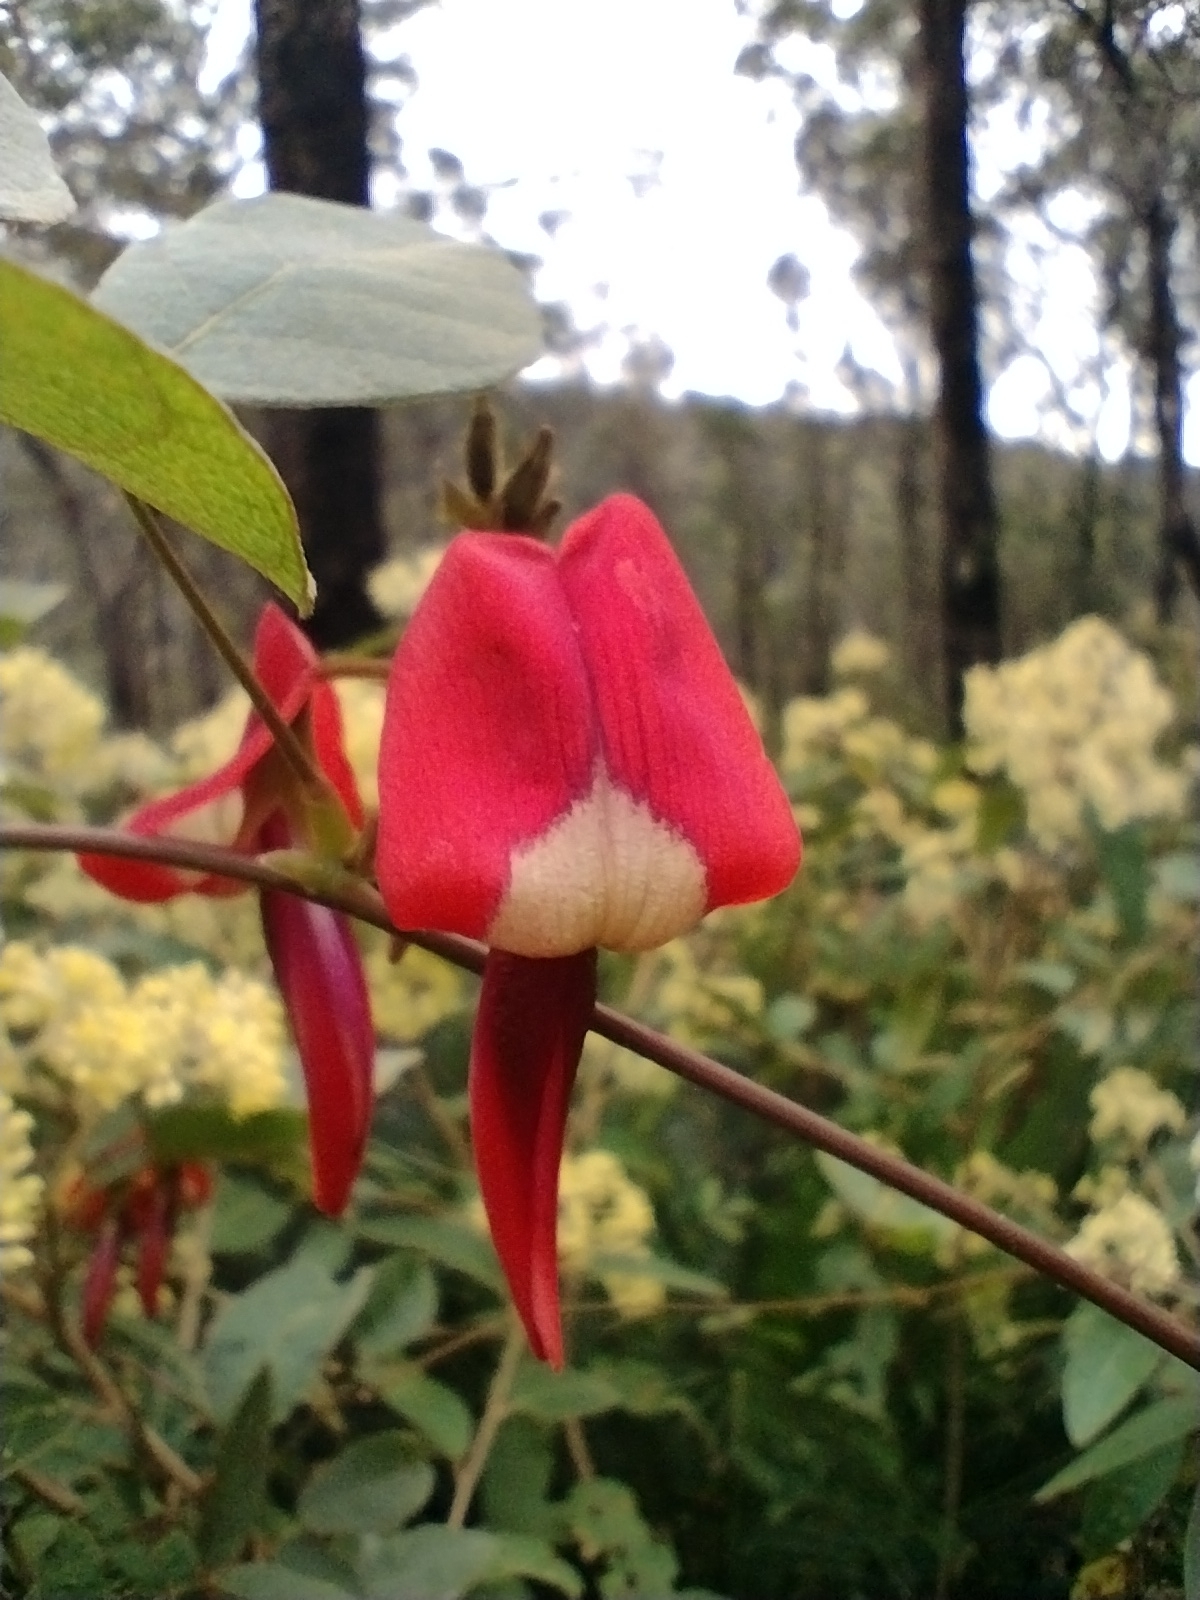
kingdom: Plantae
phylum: Tracheophyta
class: Magnoliopsida
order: Fabales
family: Fabaceae
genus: Kennedia
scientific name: Kennedia rubicunda
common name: Red kennedy-pea
